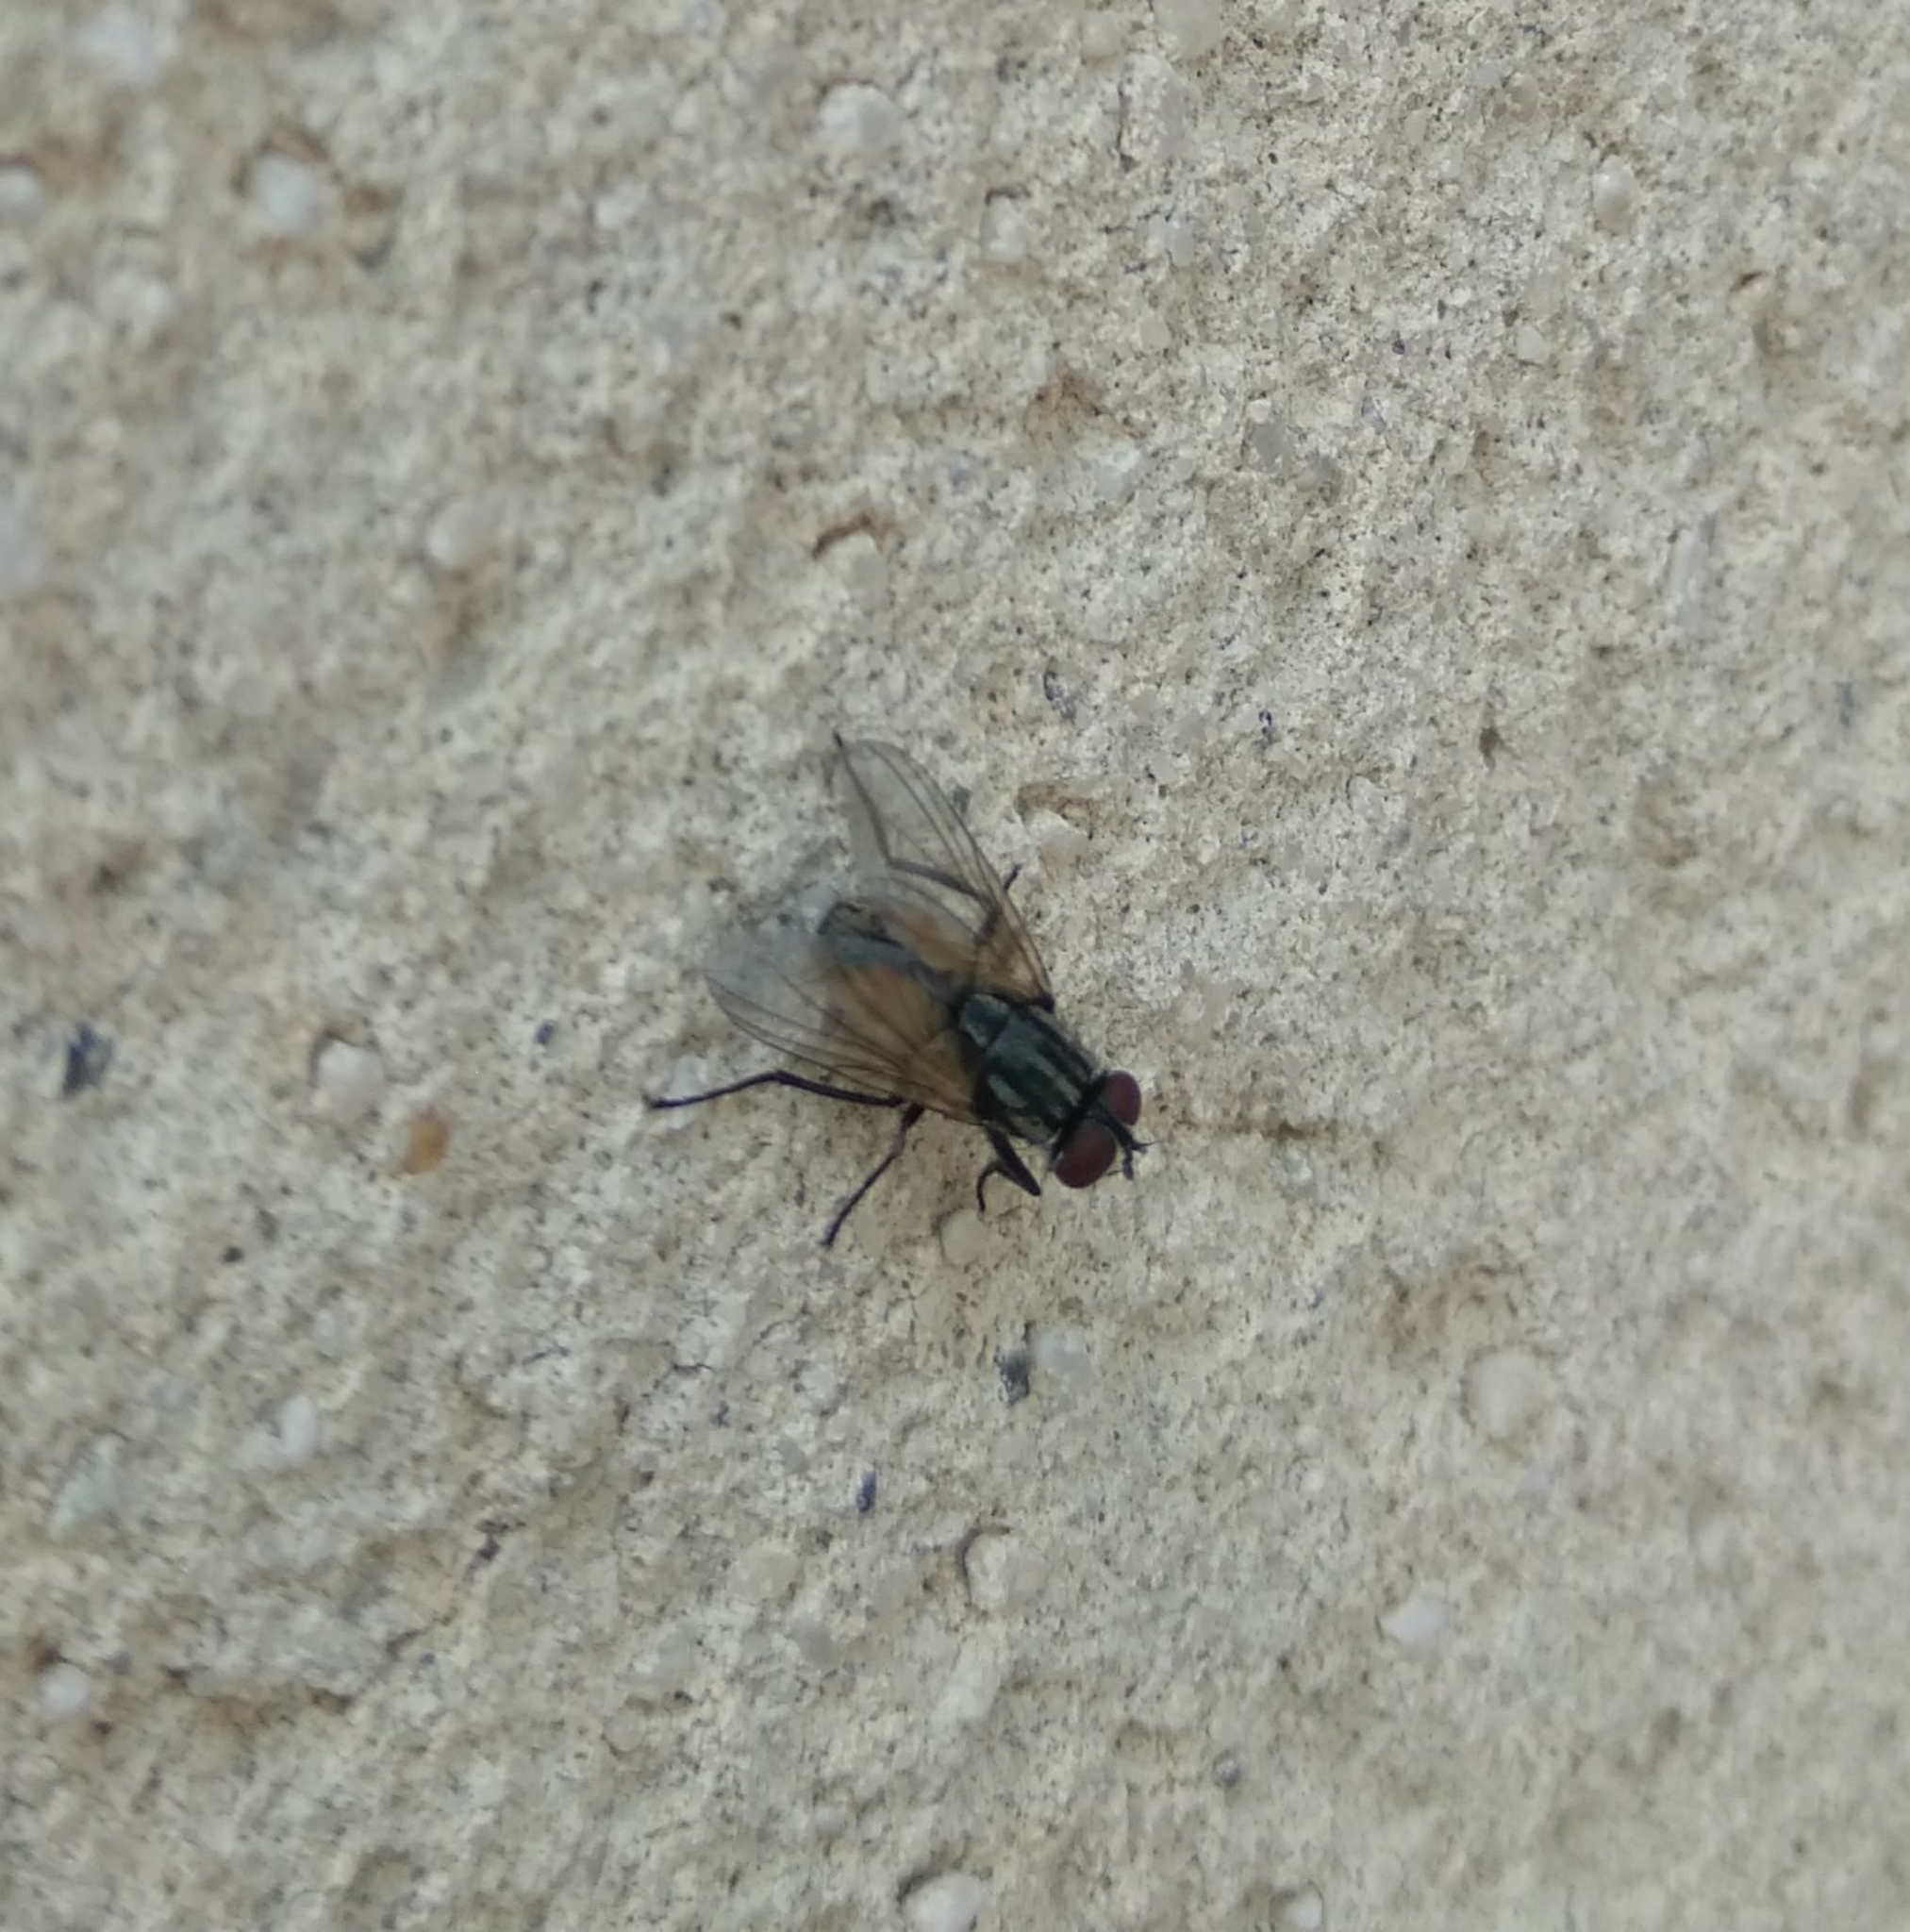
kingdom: Animalia
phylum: Arthropoda
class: Insecta
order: Diptera
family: Muscidae
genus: Musca
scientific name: Musca domestica
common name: House fly
